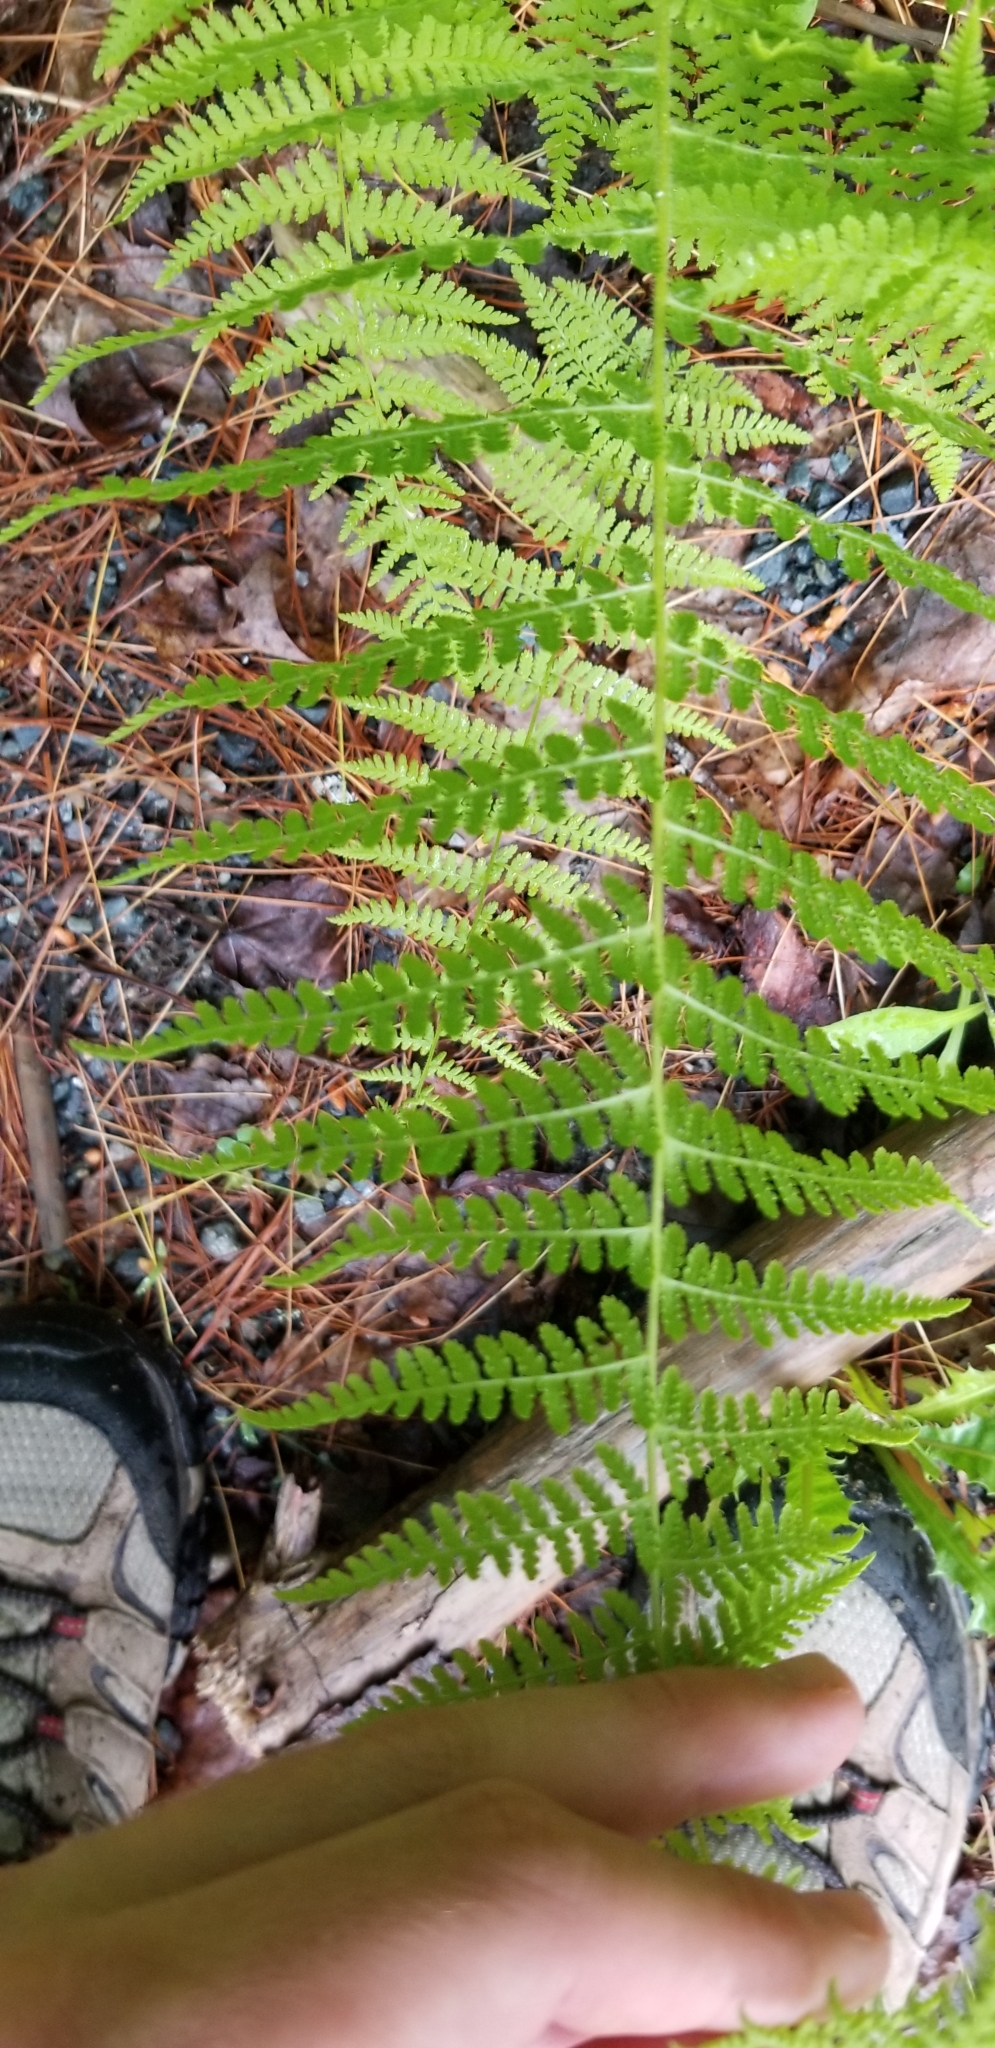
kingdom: Plantae
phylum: Tracheophyta
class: Polypodiopsida
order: Polypodiales
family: Dennstaedtiaceae
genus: Sitobolium
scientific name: Sitobolium punctilobum
